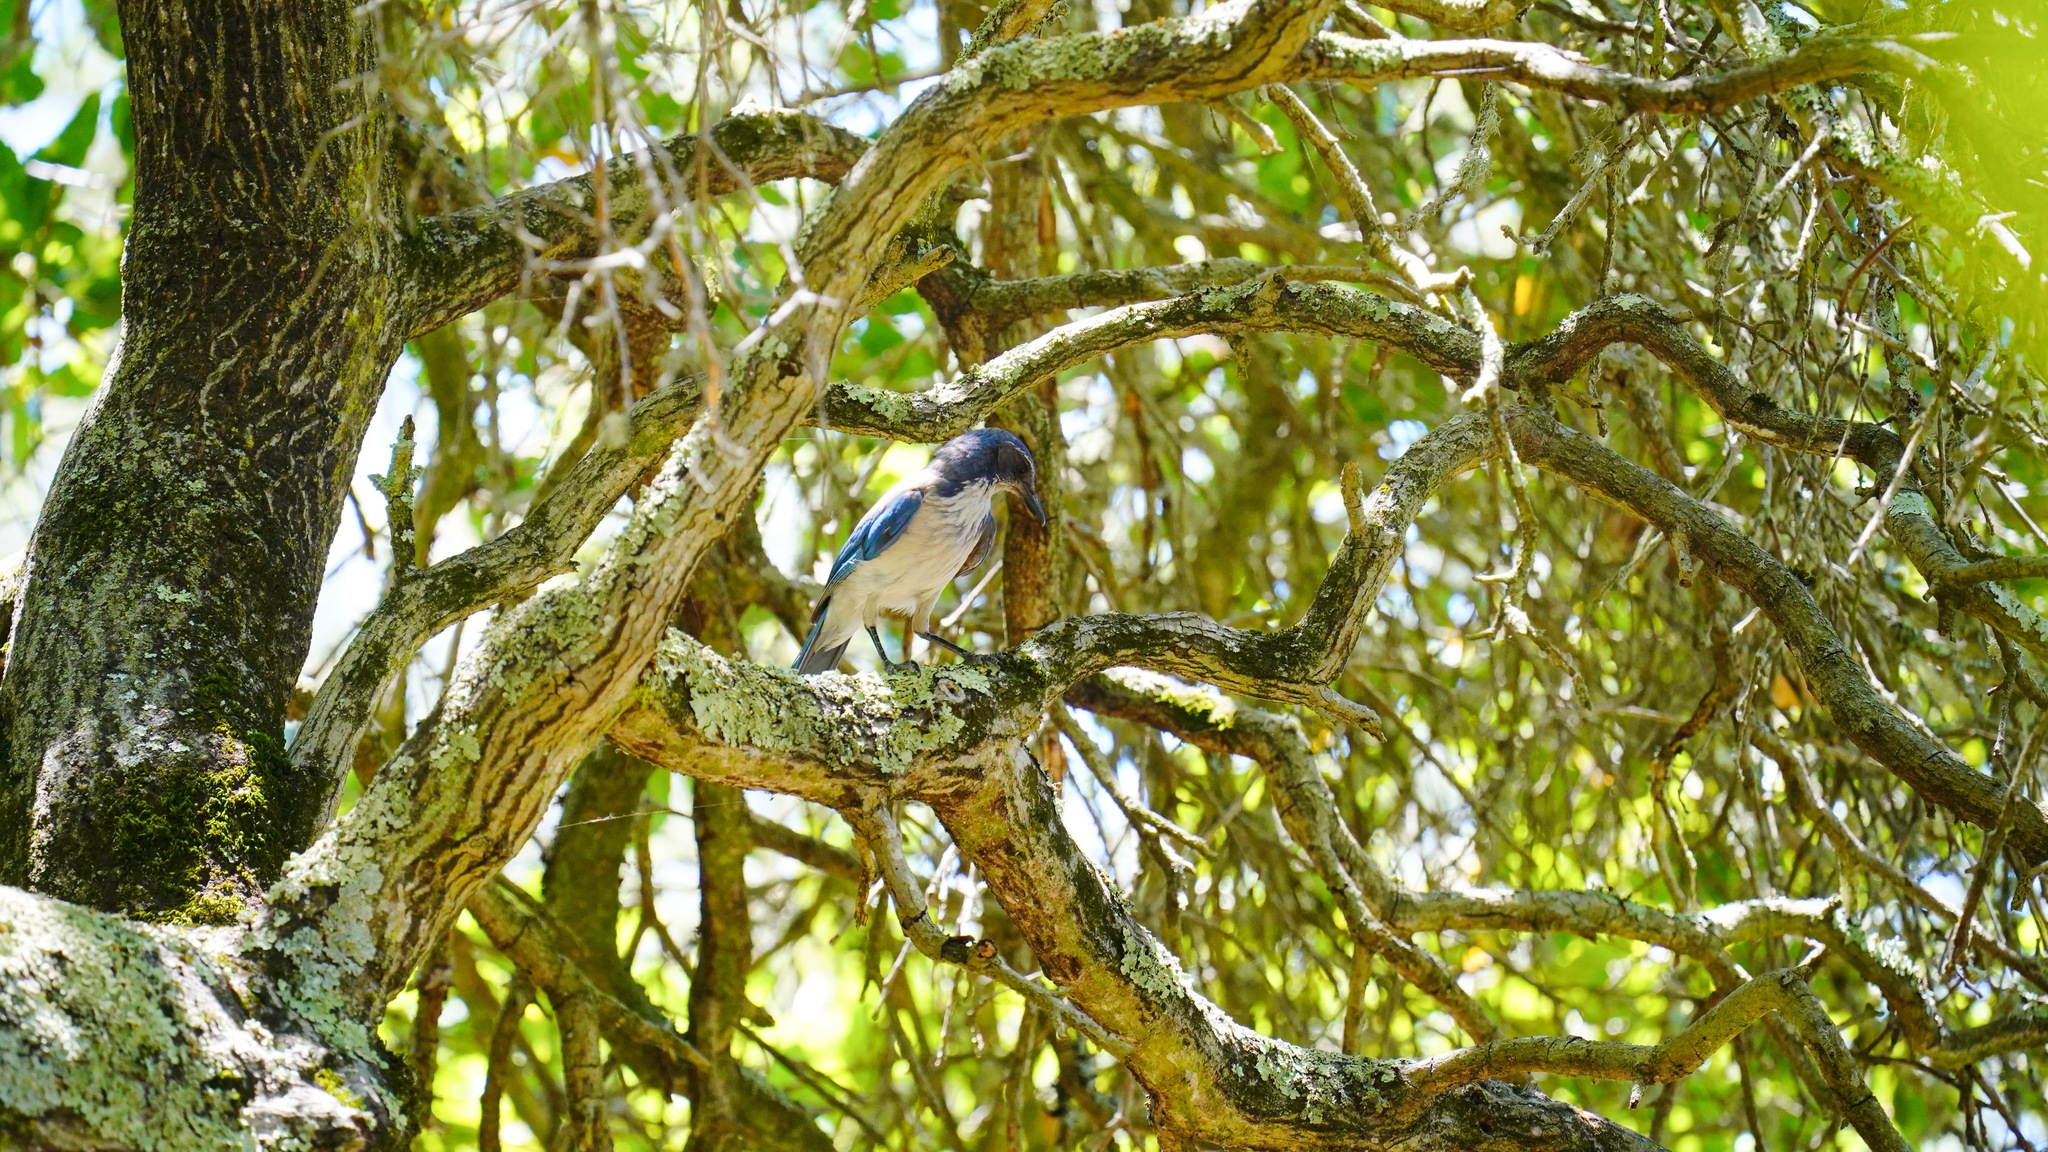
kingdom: Animalia
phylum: Chordata
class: Aves
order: Passeriformes
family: Corvidae
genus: Aphelocoma
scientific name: Aphelocoma californica
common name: California scrub-jay
